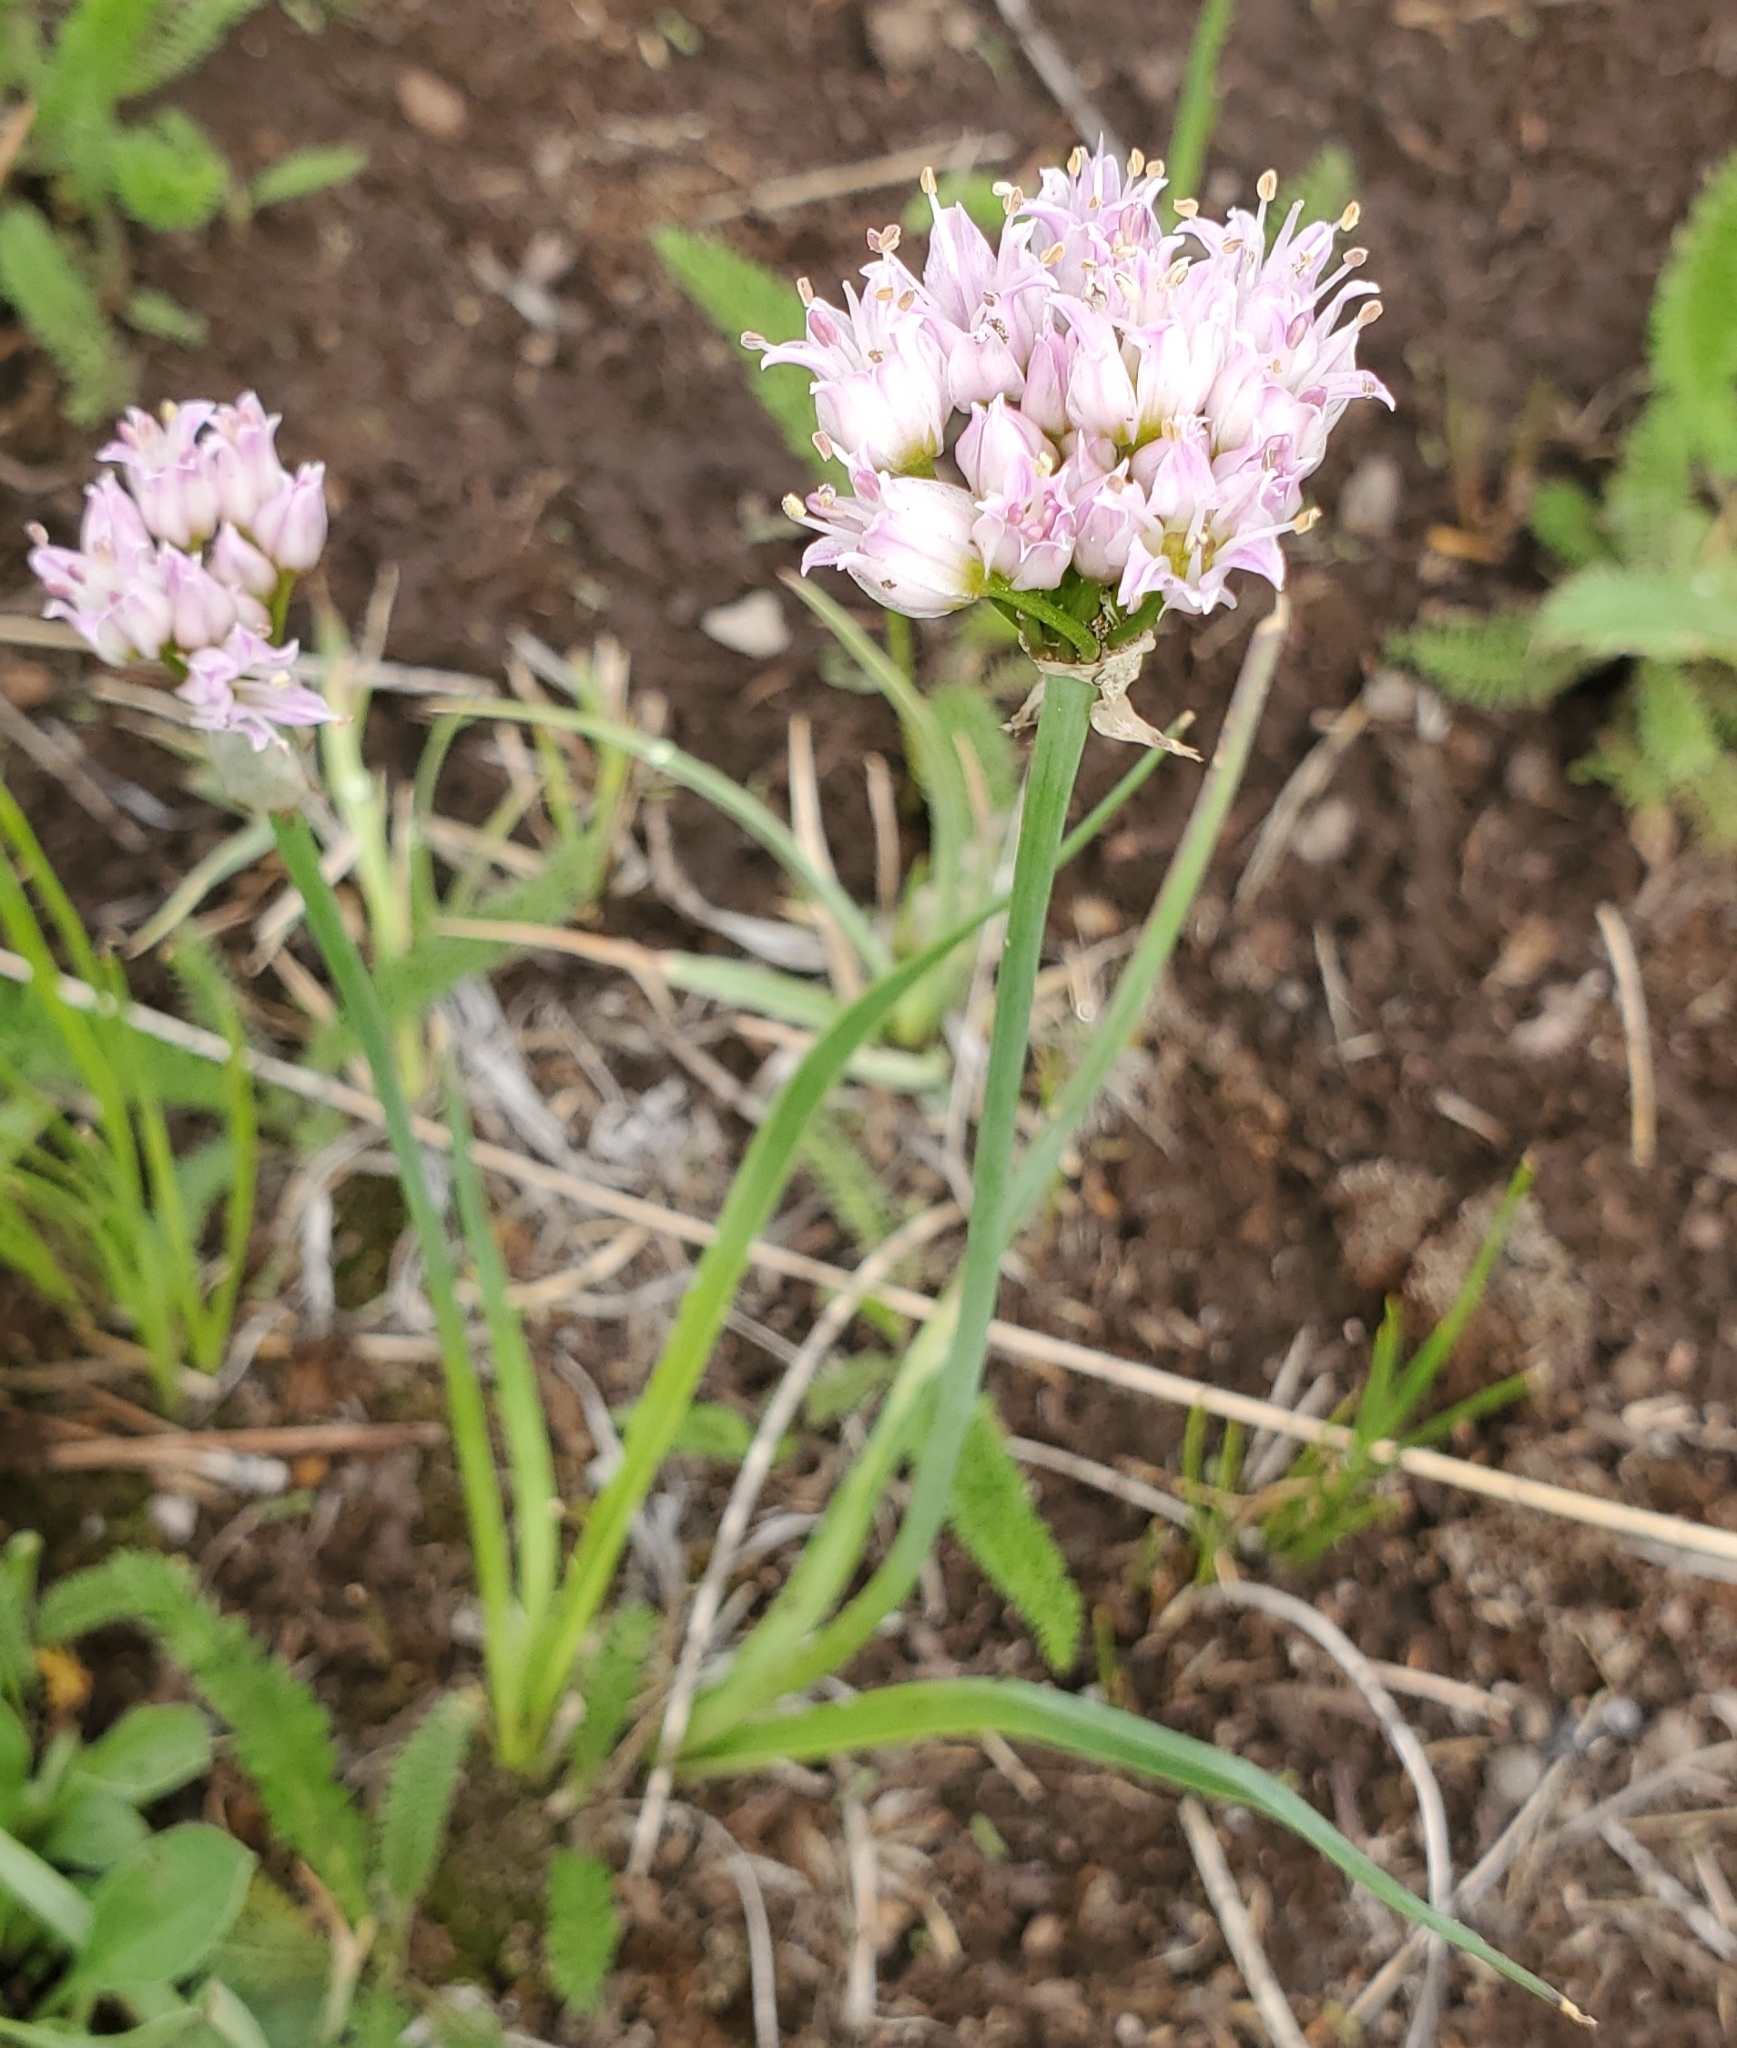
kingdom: Plantae
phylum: Tracheophyta
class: Liliopsida
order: Asparagales
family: Amaryllidaceae
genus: Allium
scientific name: Allium geyeri
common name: Geyer's onion
